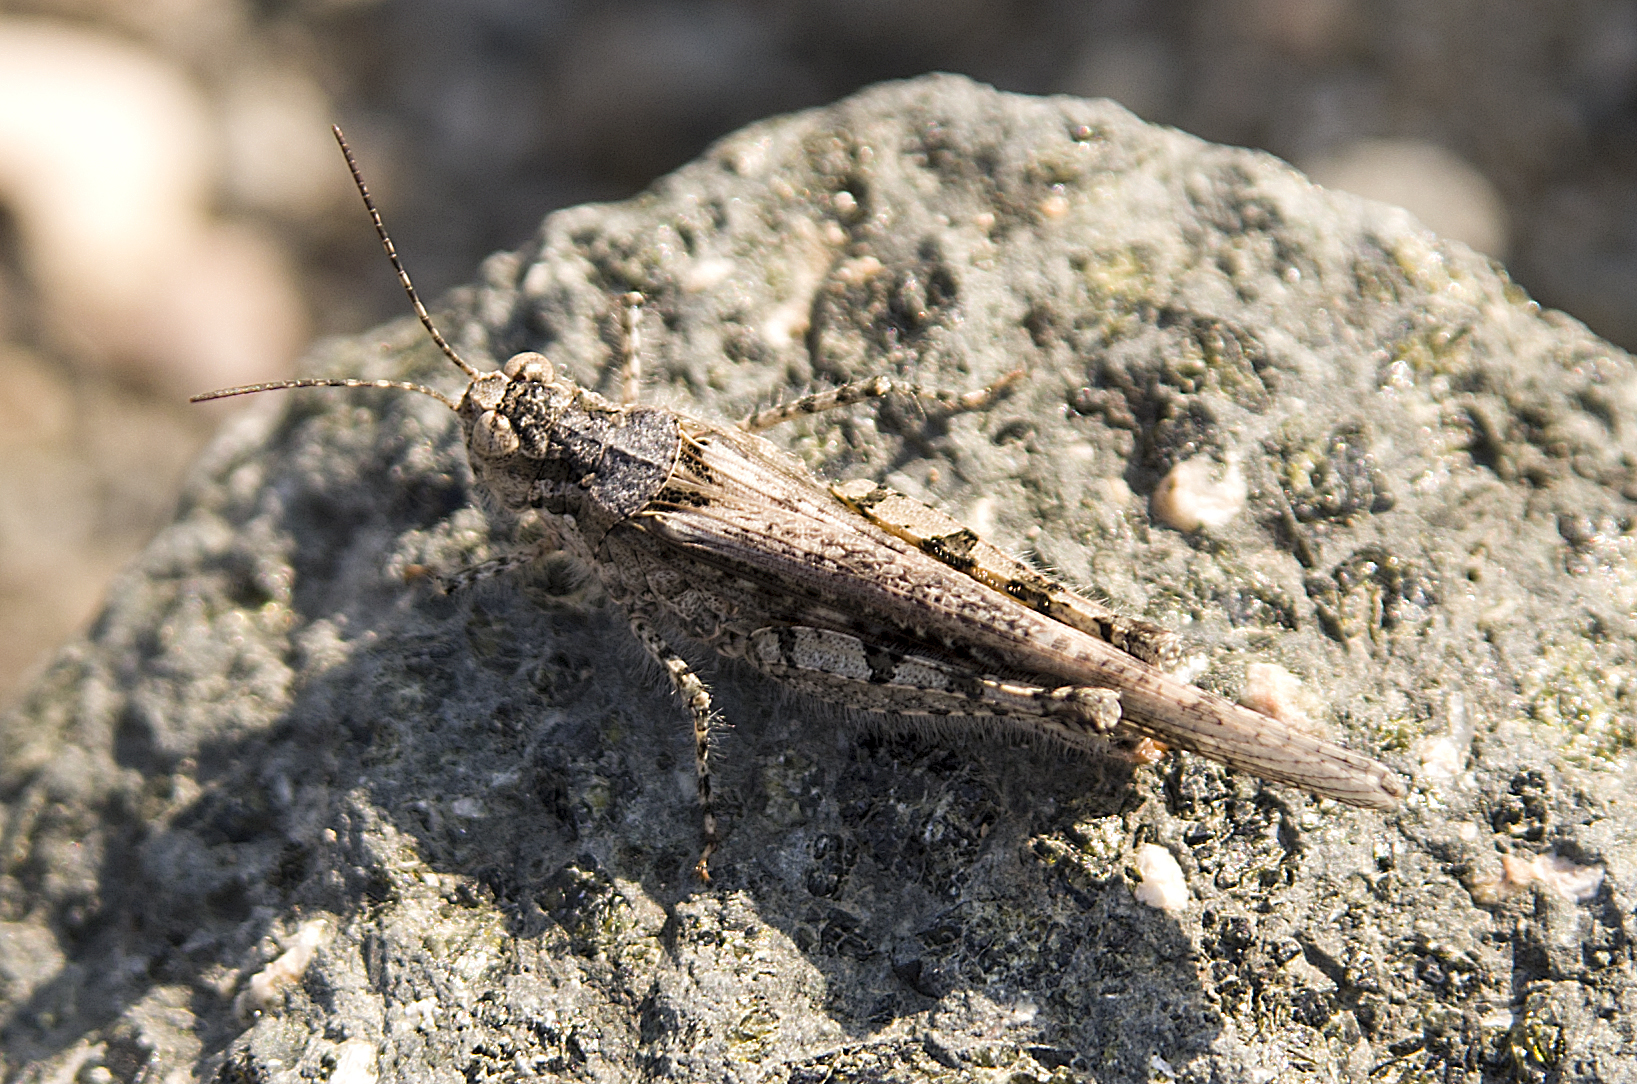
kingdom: Animalia
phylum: Arthropoda
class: Insecta
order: Orthoptera
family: Acrididae
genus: Acrotylus
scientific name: Acrotylus patruelis
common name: Slender burrowing grasshopper
